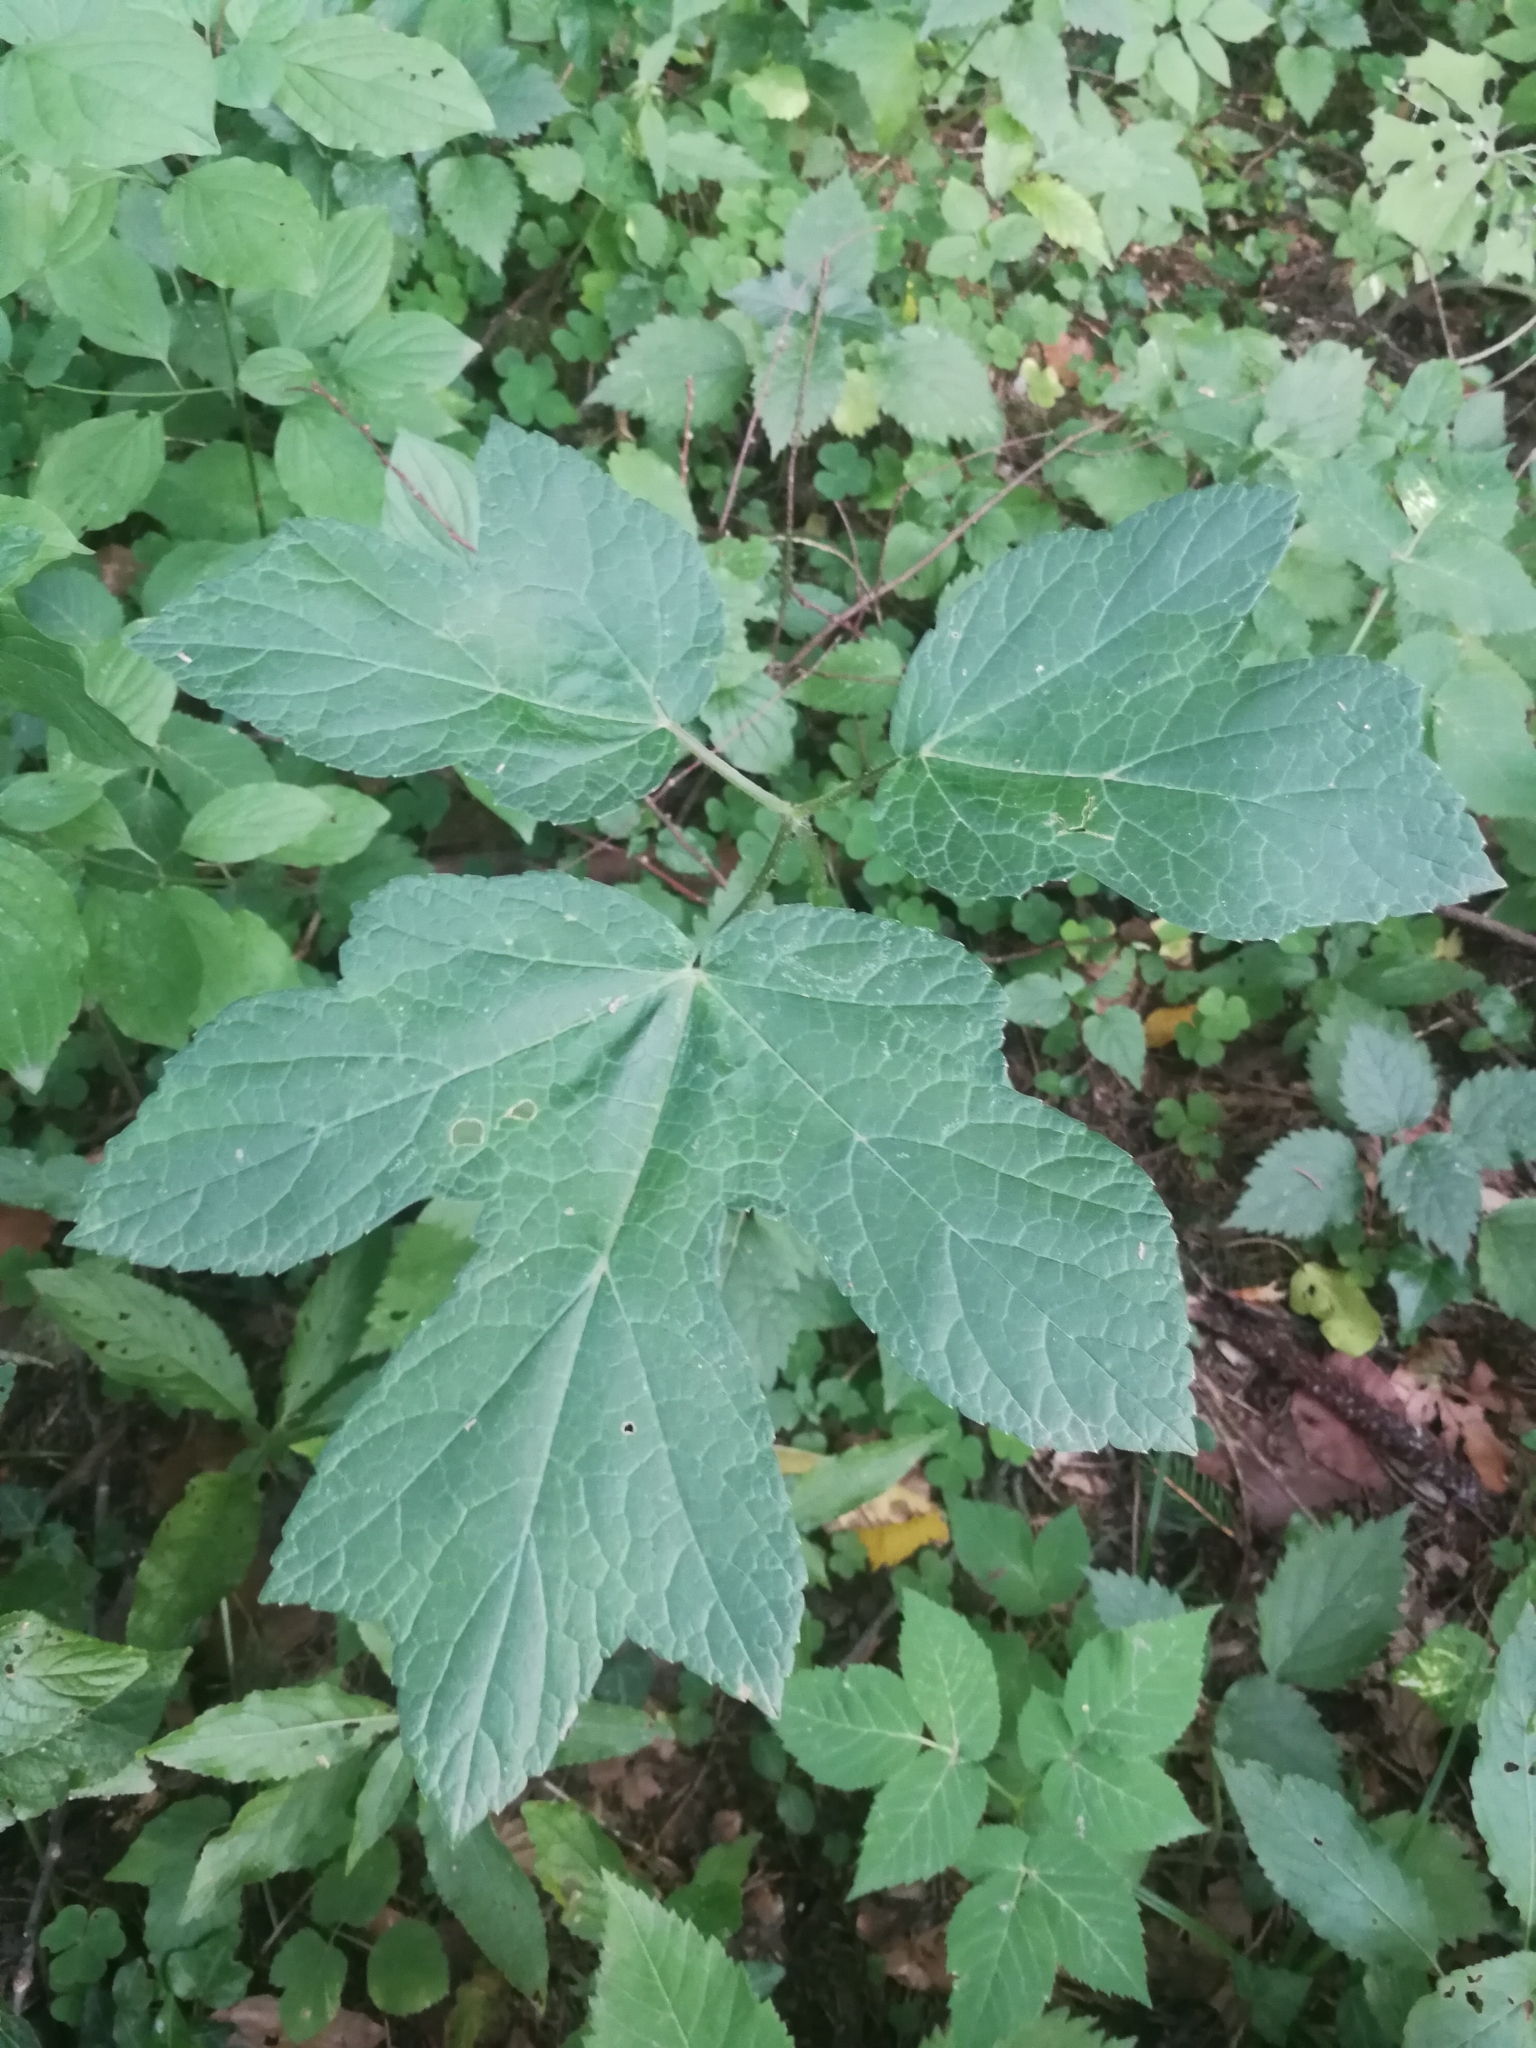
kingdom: Plantae
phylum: Tracheophyta
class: Magnoliopsida
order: Apiales
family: Apiaceae
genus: Heracleum
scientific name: Heracleum sphondylium
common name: Hogweed
